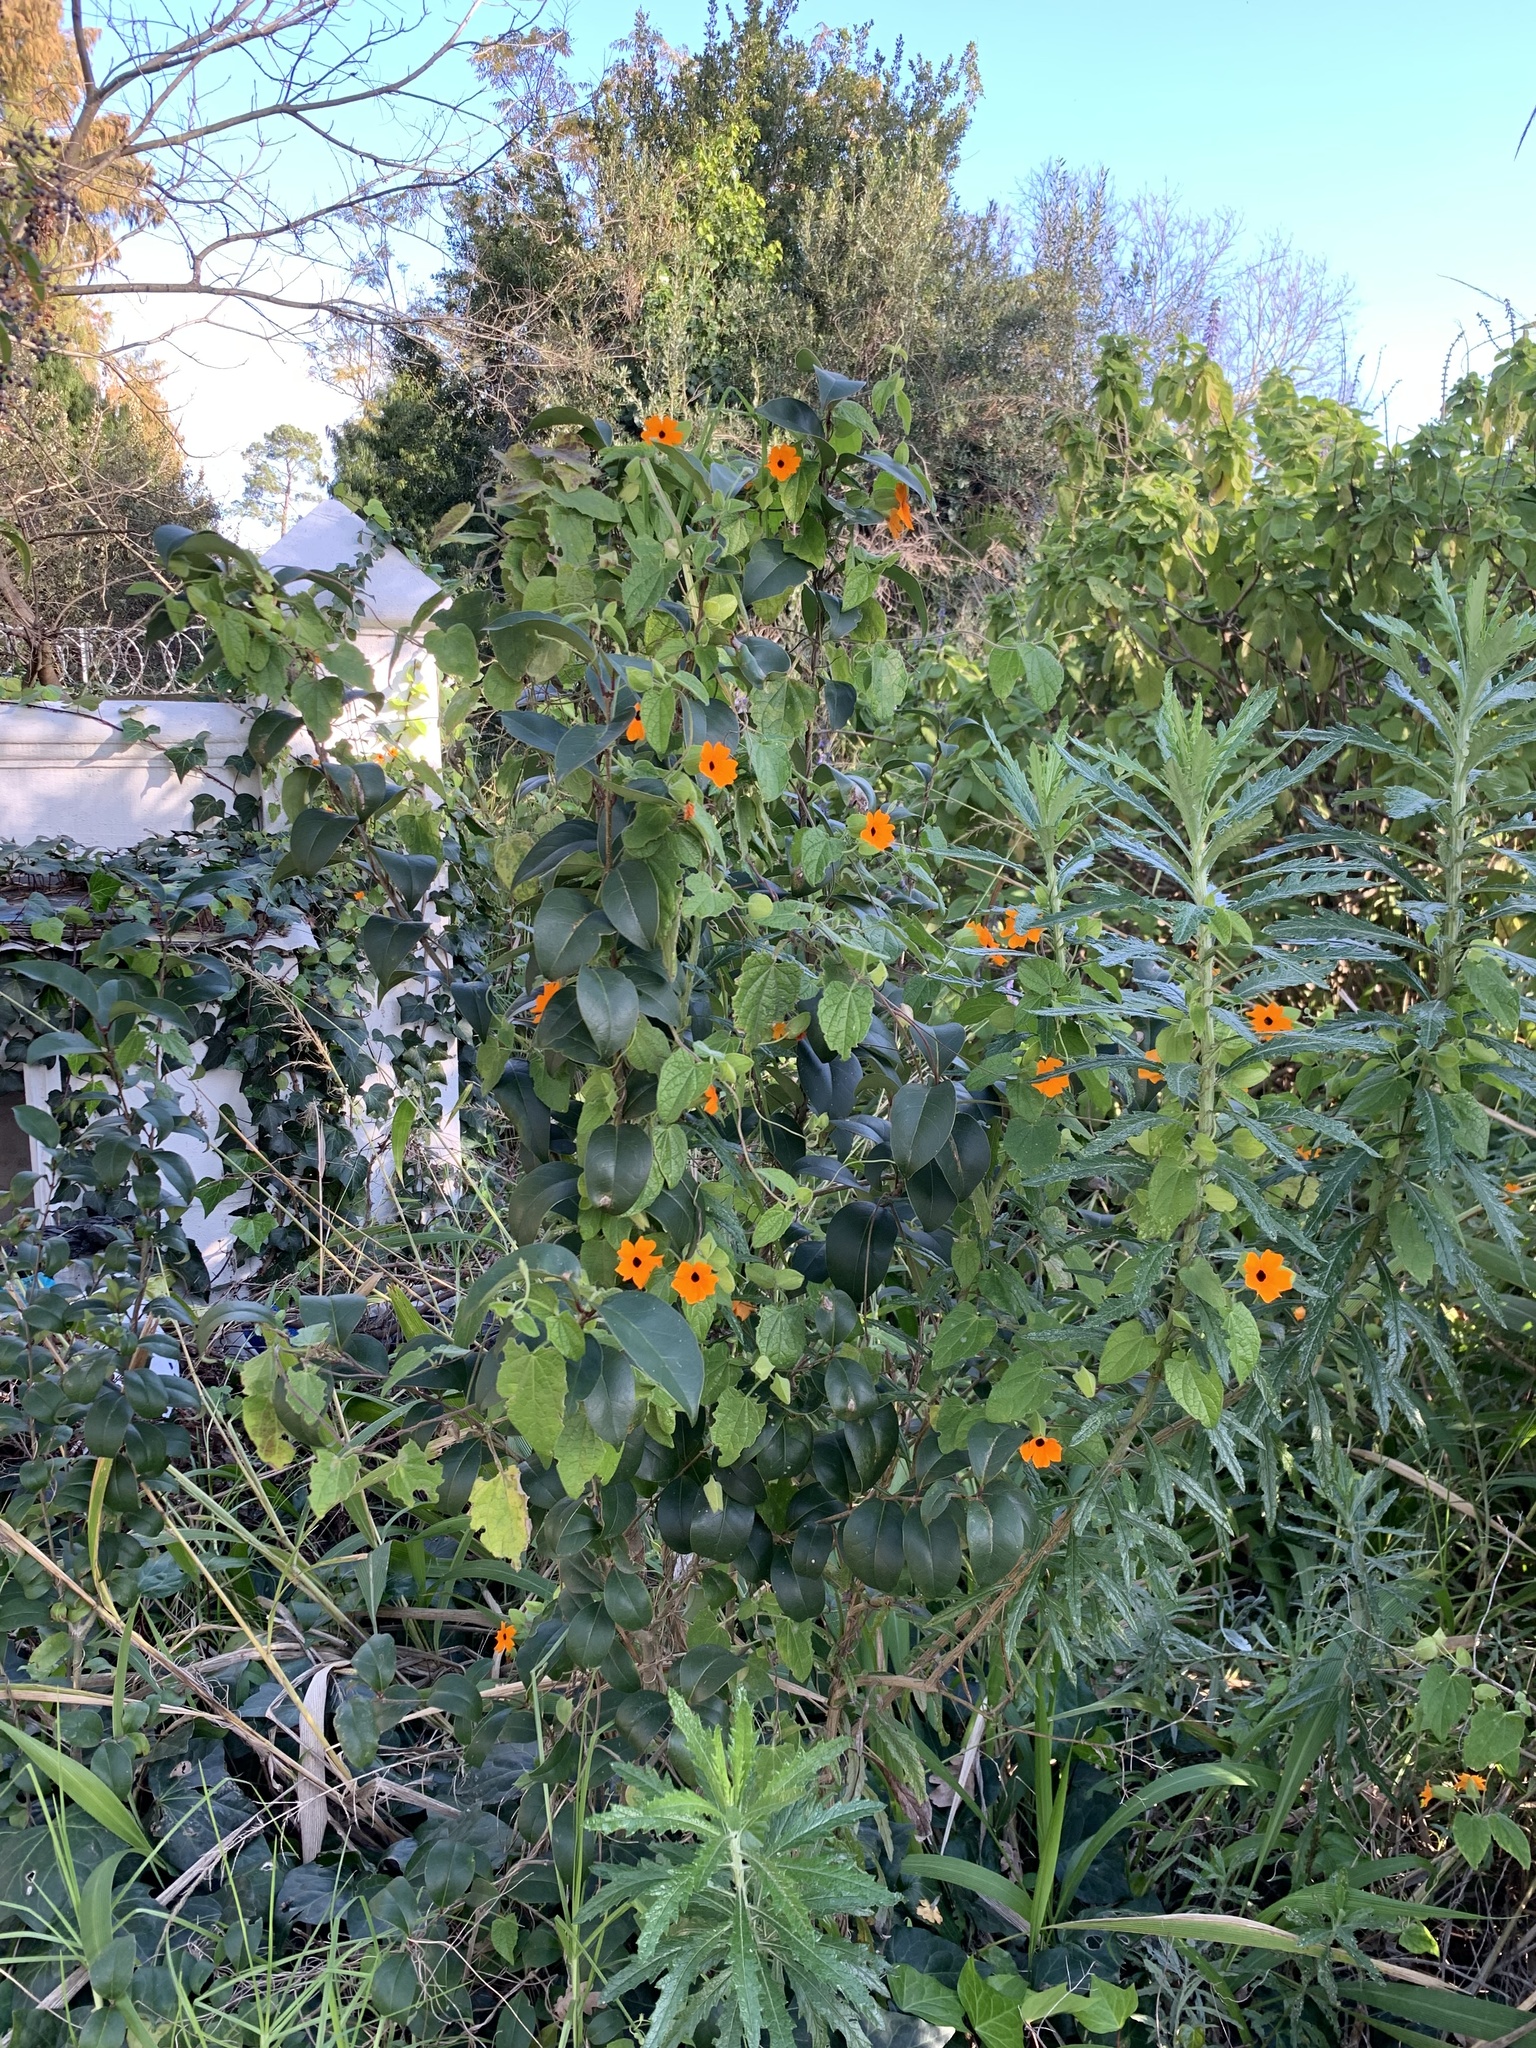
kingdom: Plantae
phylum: Tracheophyta
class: Magnoliopsida
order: Lamiales
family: Acanthaceae
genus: Thunbergia
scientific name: Thunbergia alata
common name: Blackeyed susan vine
